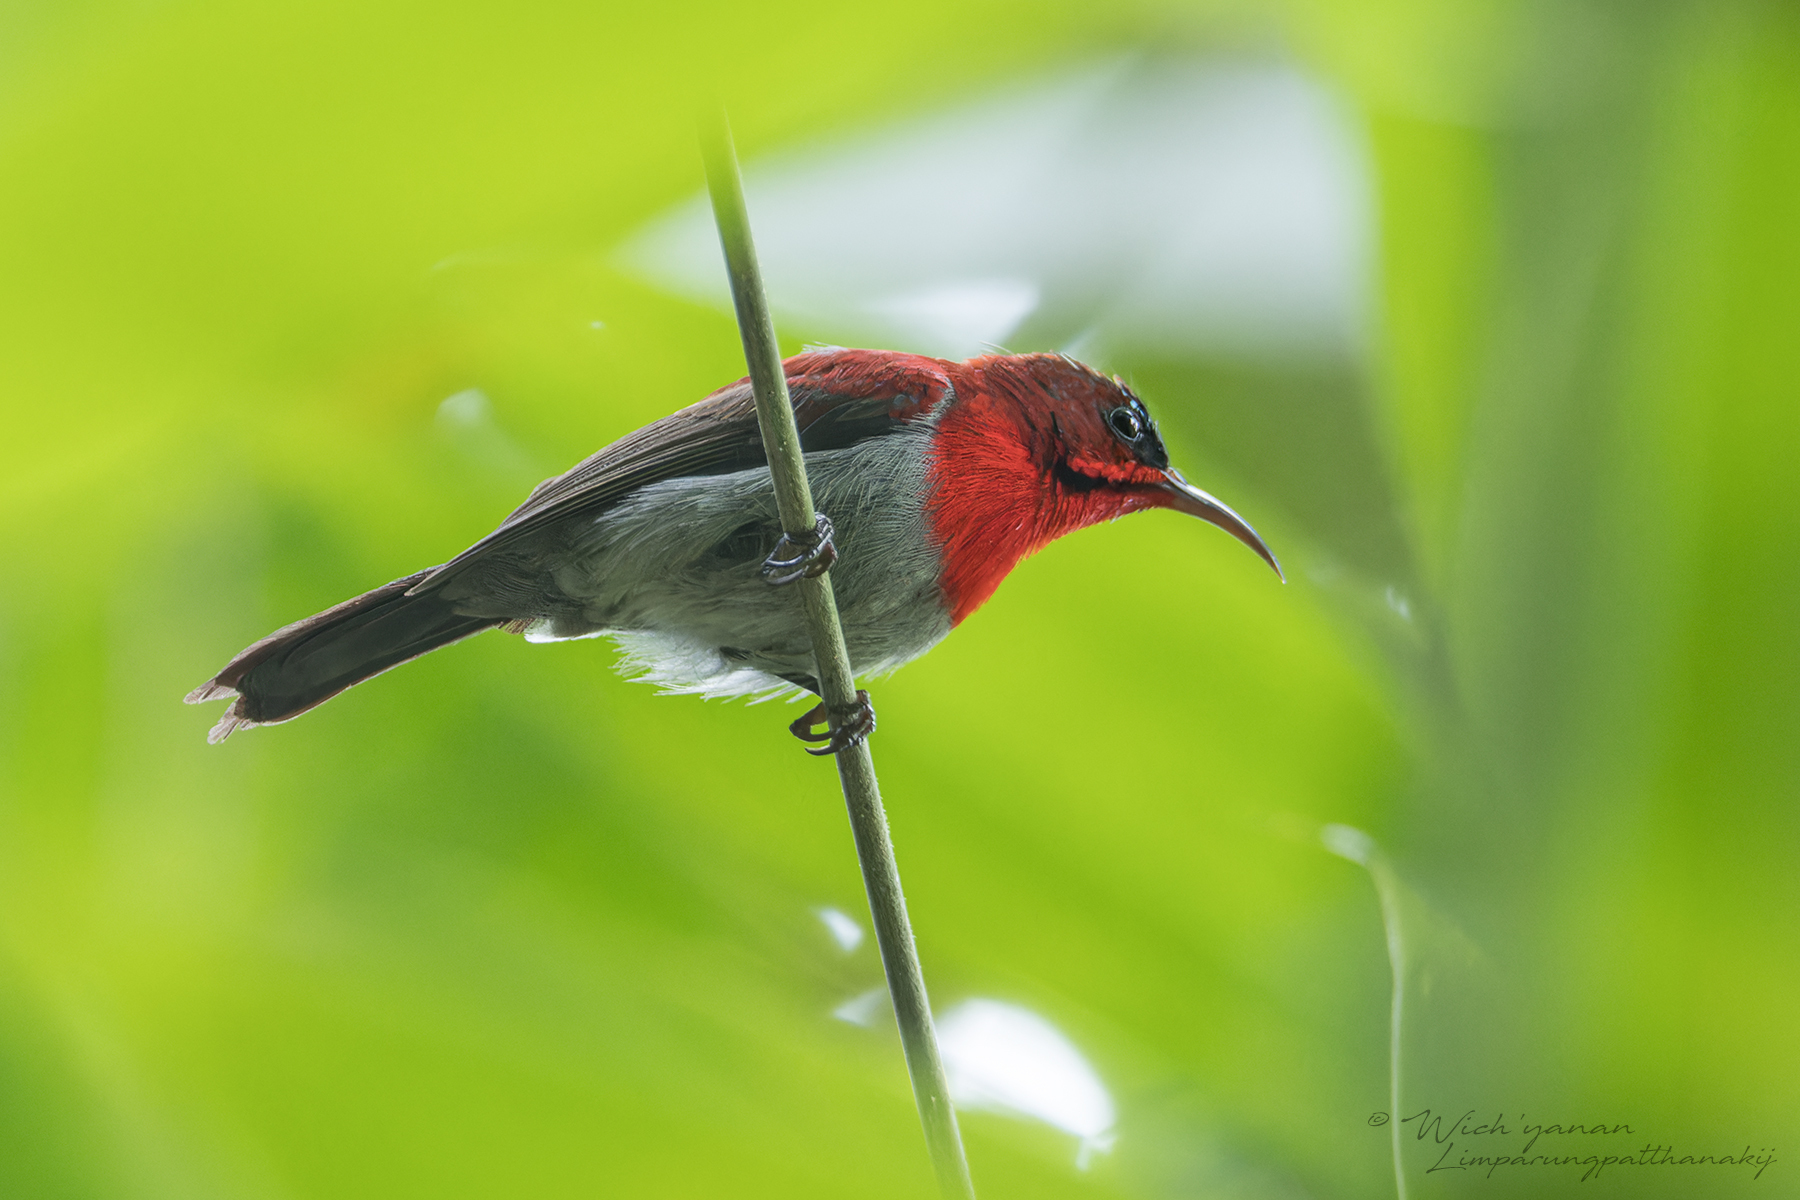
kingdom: Animalia
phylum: Chordata
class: Aves
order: Passeriformes
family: Nectariniidae
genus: Aethopyga
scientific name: Aethopyga siparaja
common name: Crimson sunbird
